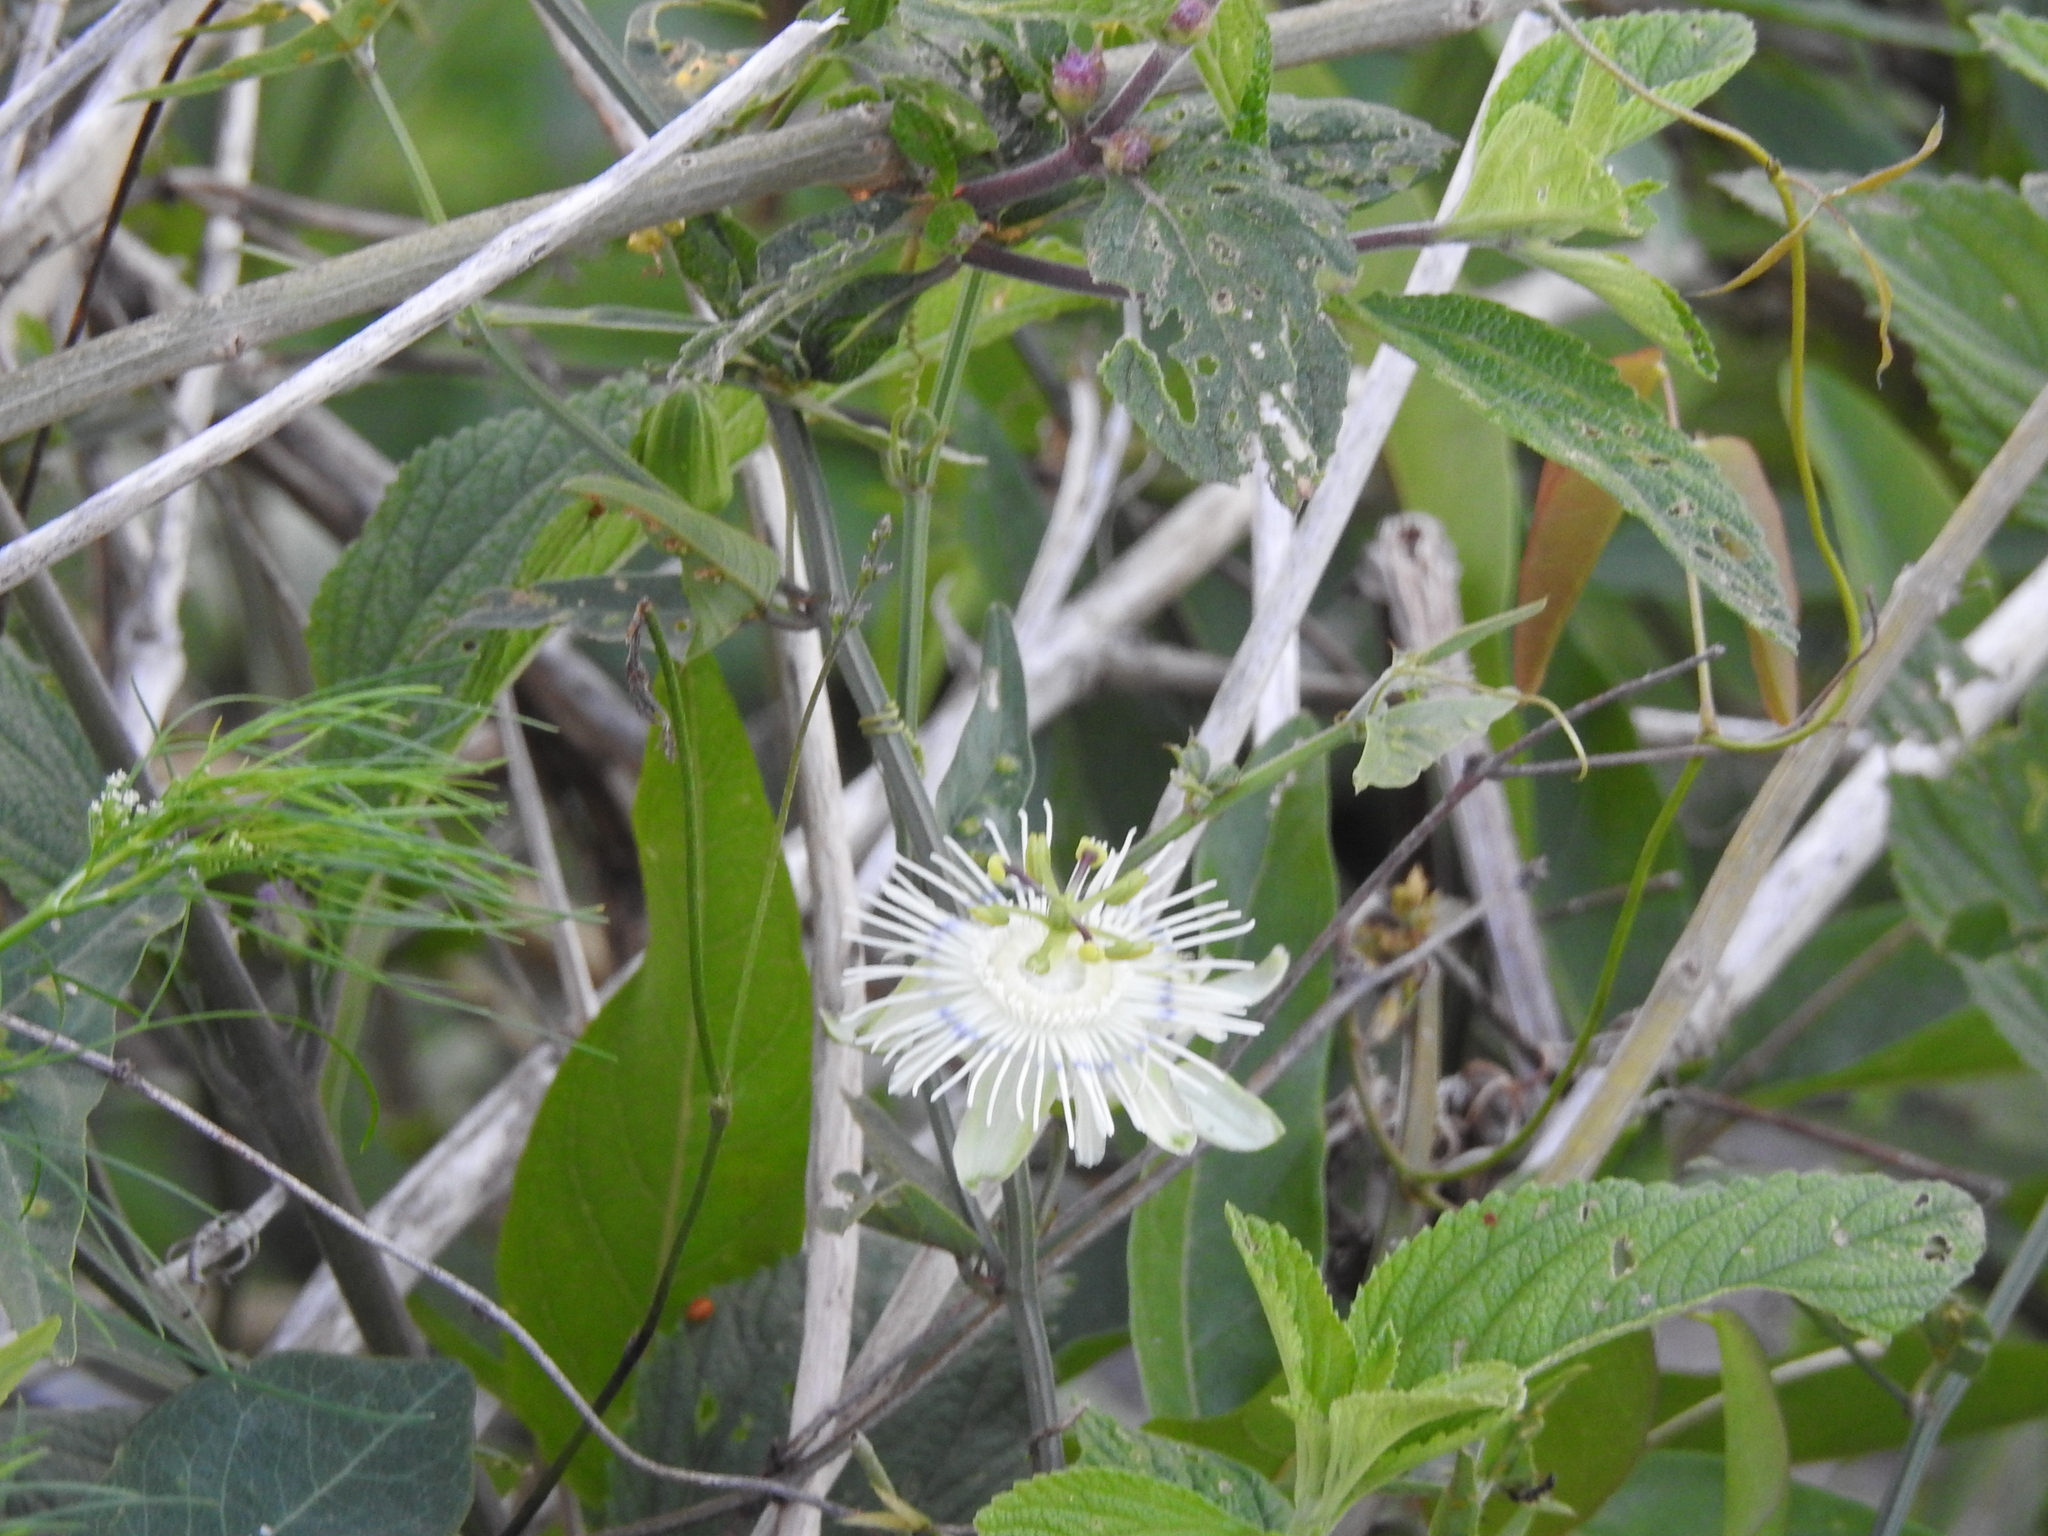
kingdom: Plantae
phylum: Tracheophyta
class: Magnoliopsida
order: Malpighiales
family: Passifloraceae
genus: Passiflora
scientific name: Passiflora misera
